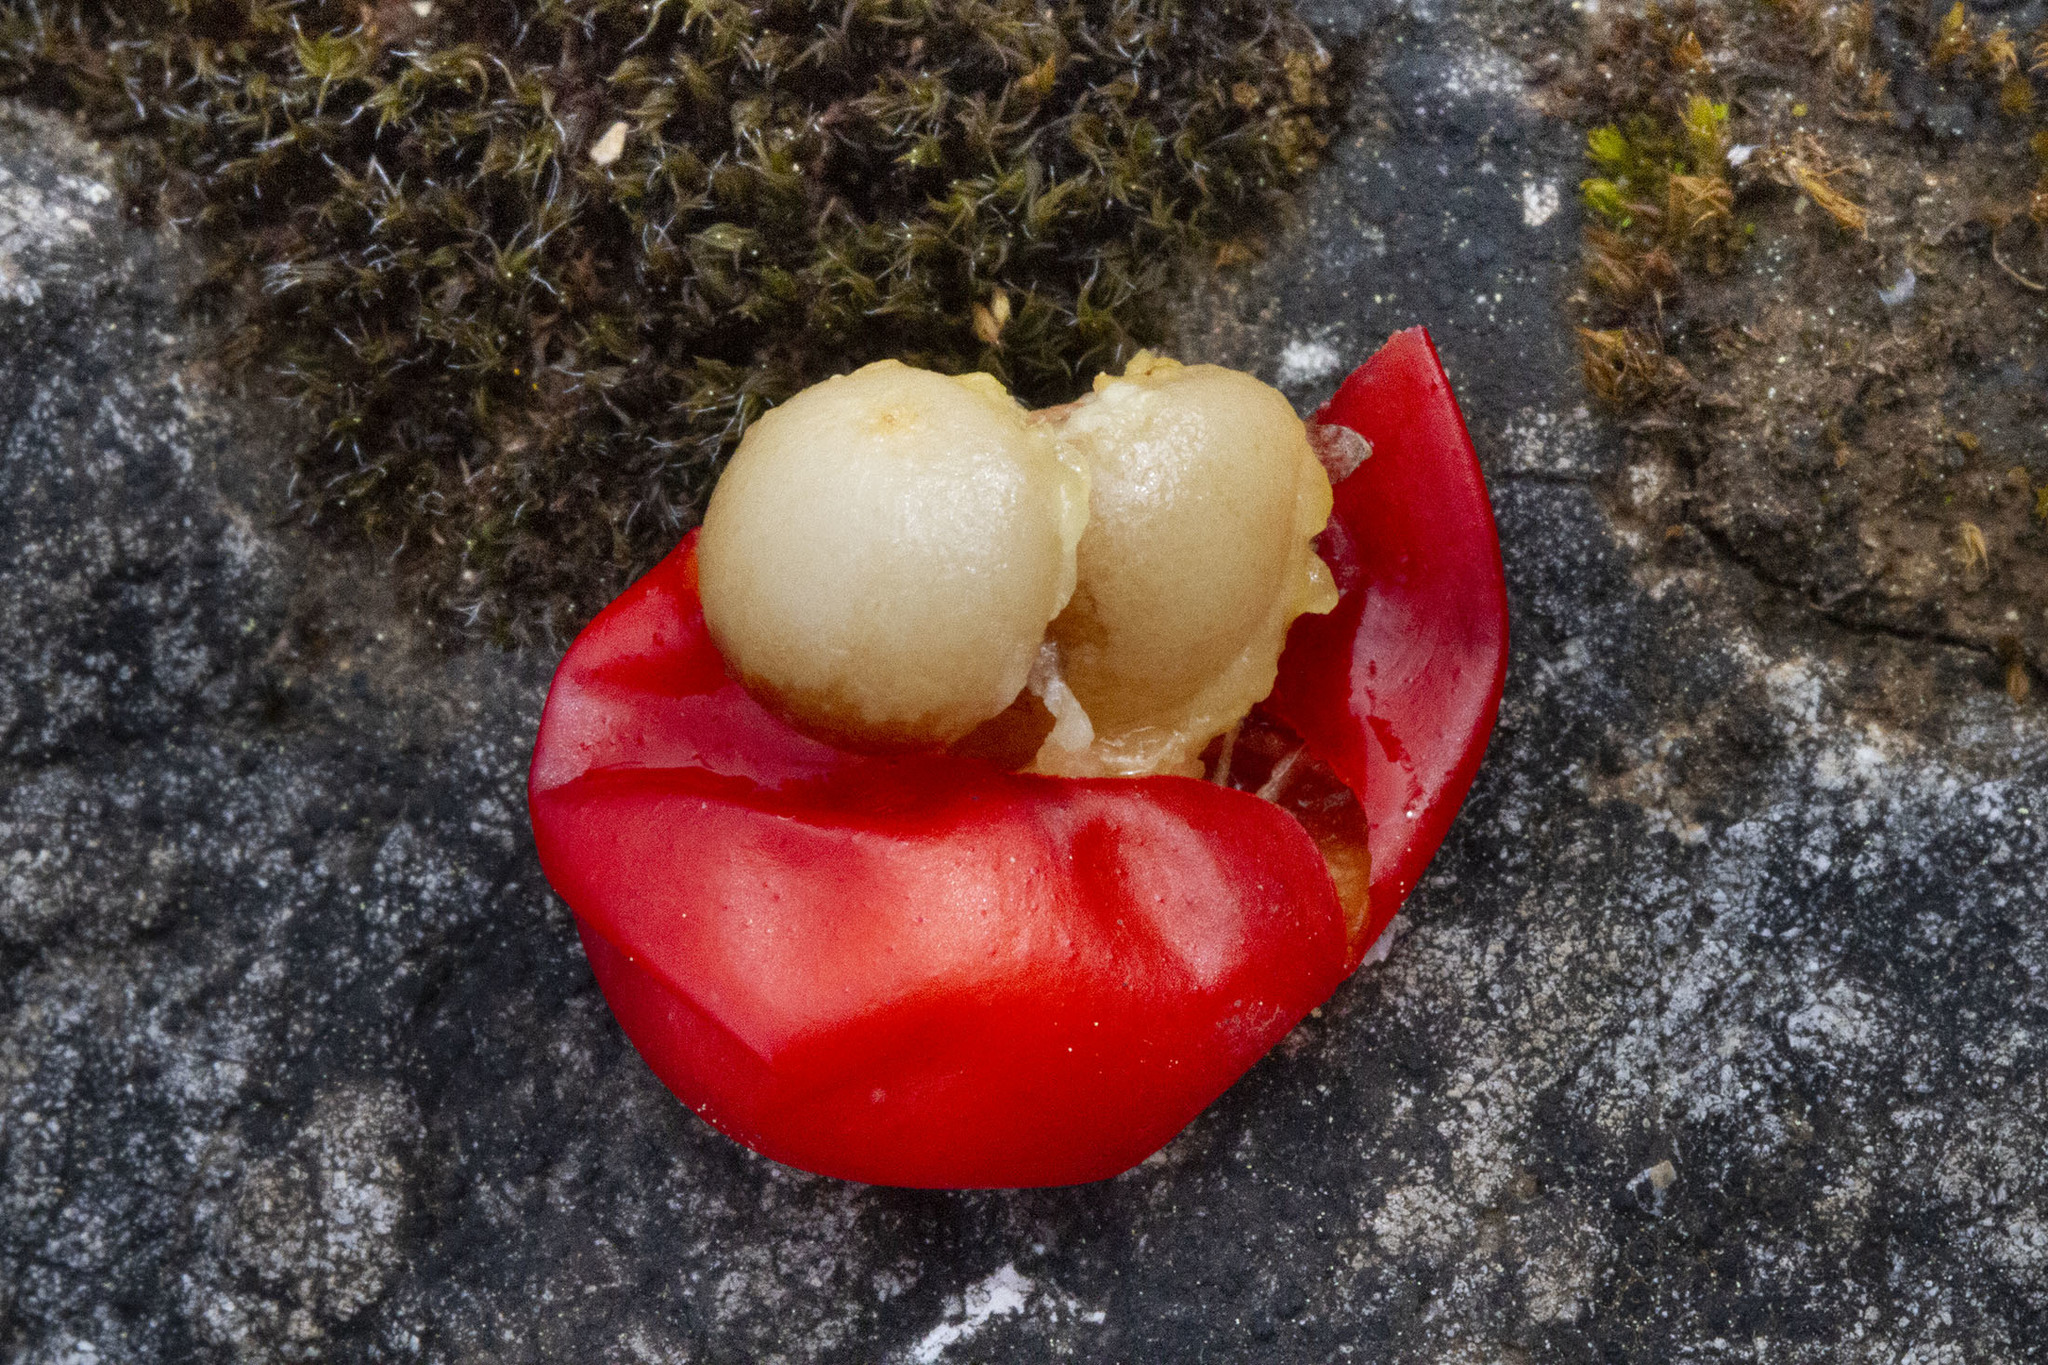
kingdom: Plantae
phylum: Tracheophyta
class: Liliopsida
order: Asparagales
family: Asparagaceae
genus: Ruscus
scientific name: Ruscus aculeatus
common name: Butcher's-broom
